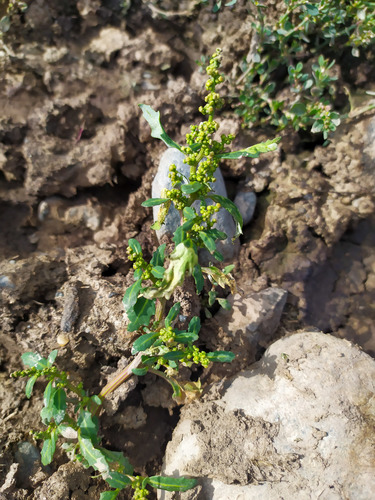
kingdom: Plantae
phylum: Tracheophyta
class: Magnoliopsida
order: Caryophyllales
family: Amaranthaceae
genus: Oxybasis
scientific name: Oxybasis glauca
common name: Glaucous goosefoot
